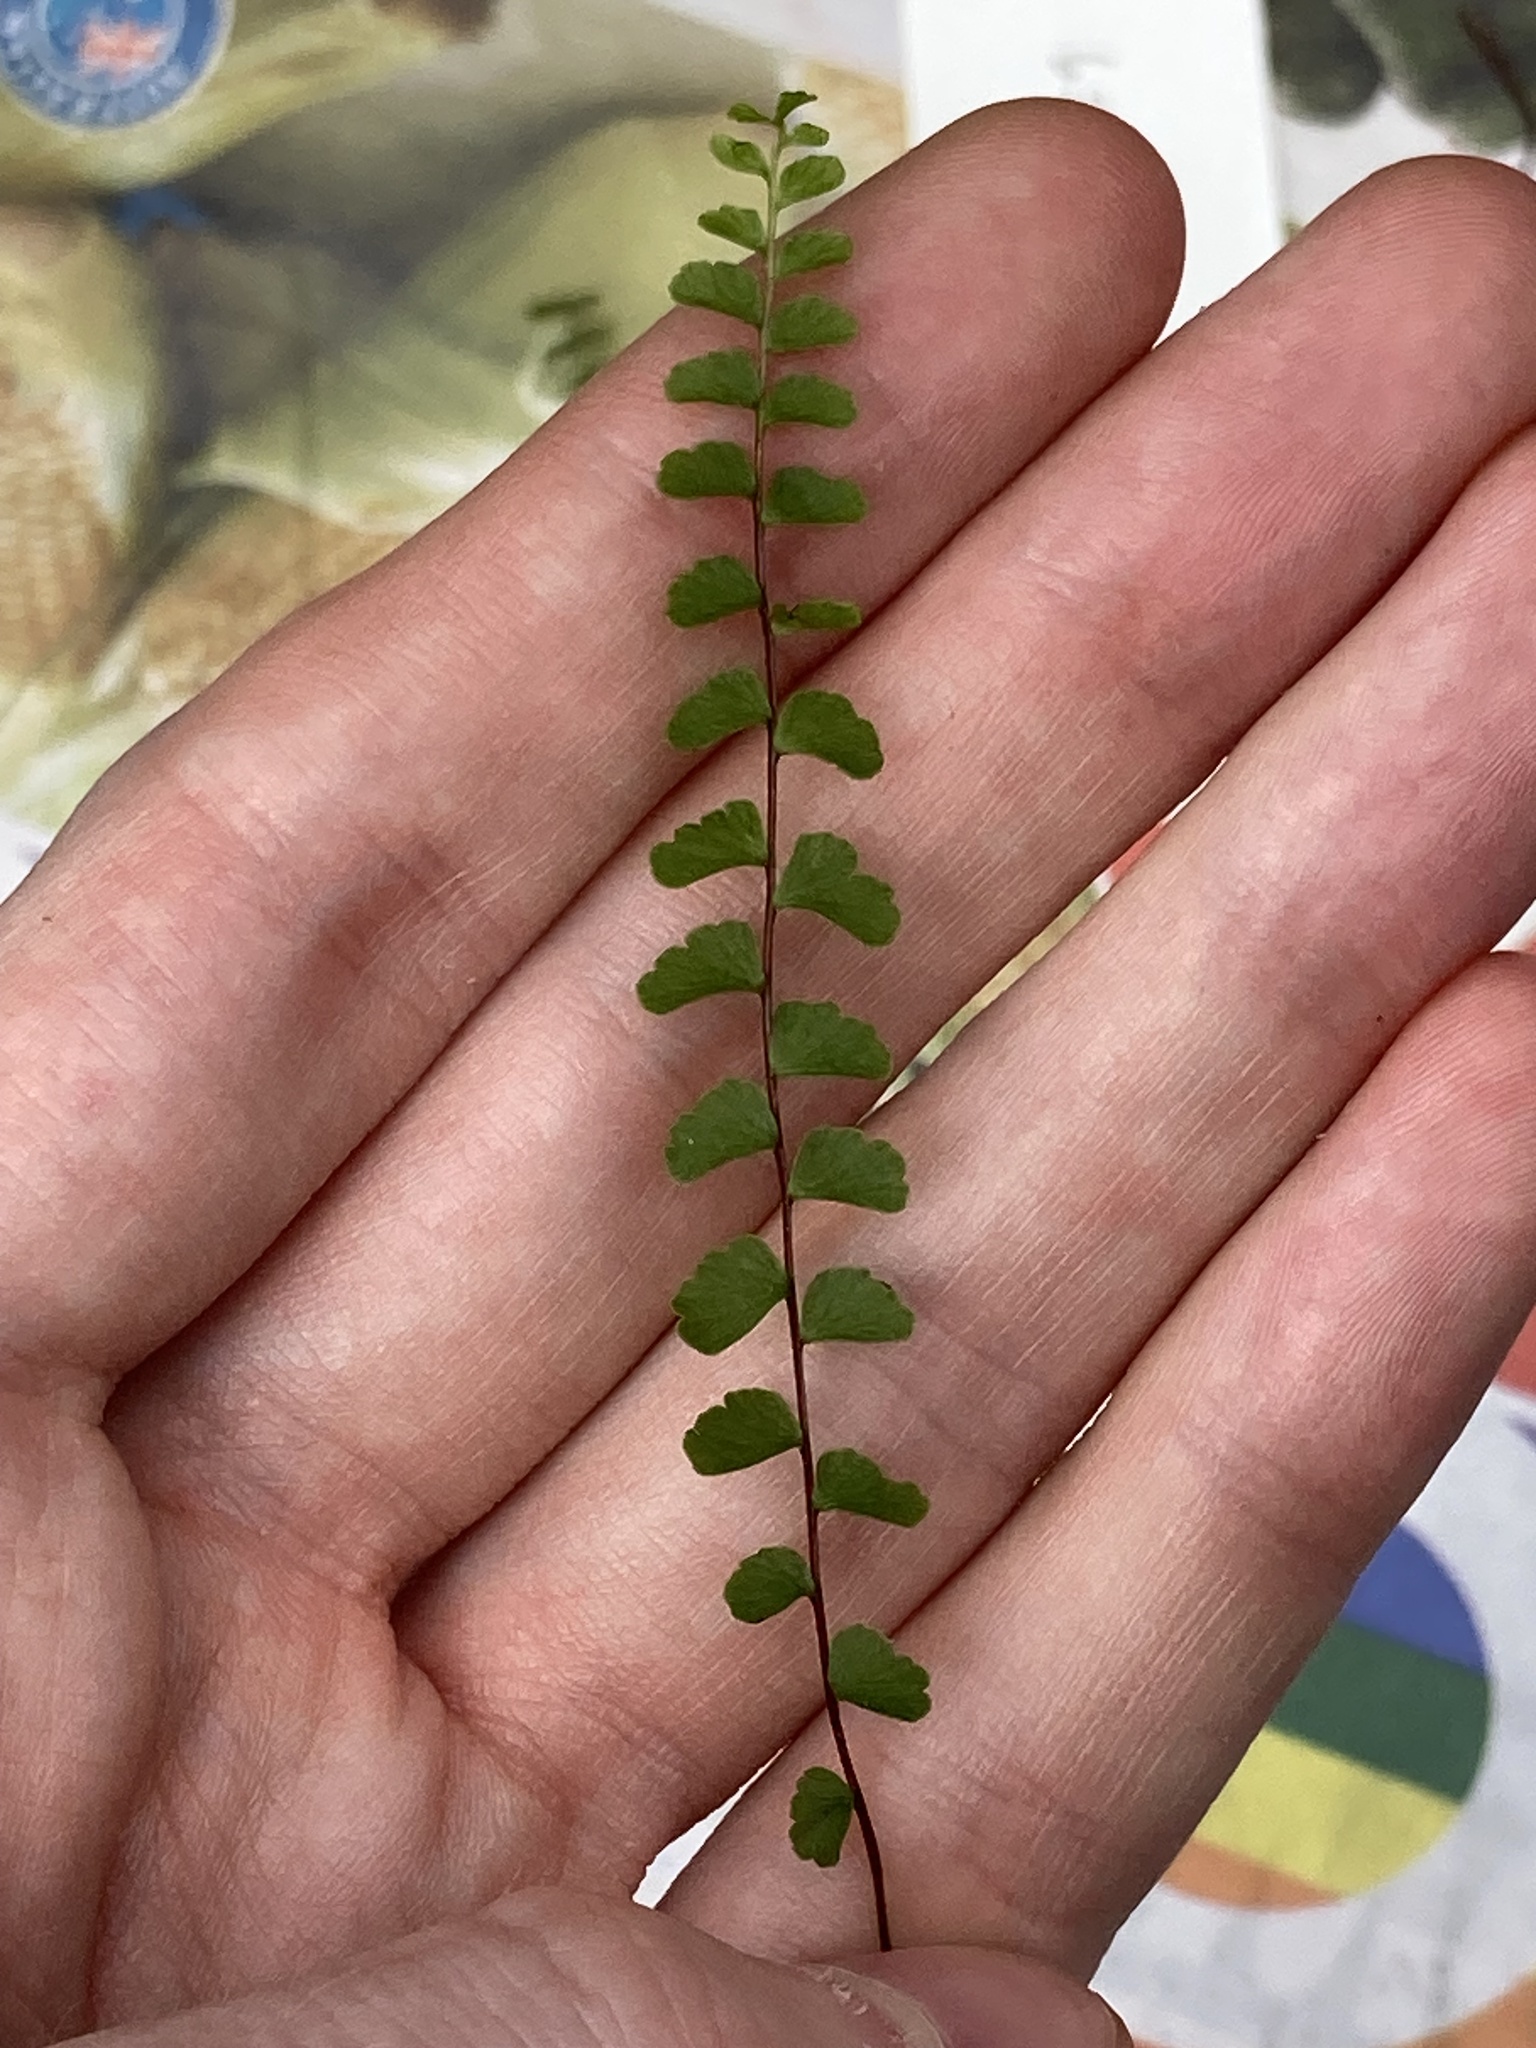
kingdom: Plantae
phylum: Tracheophyta
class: Polypodiopsida
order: Polypodiales
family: Lindsaeaceae
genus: Lindsaea
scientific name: Lindsaea linearis
